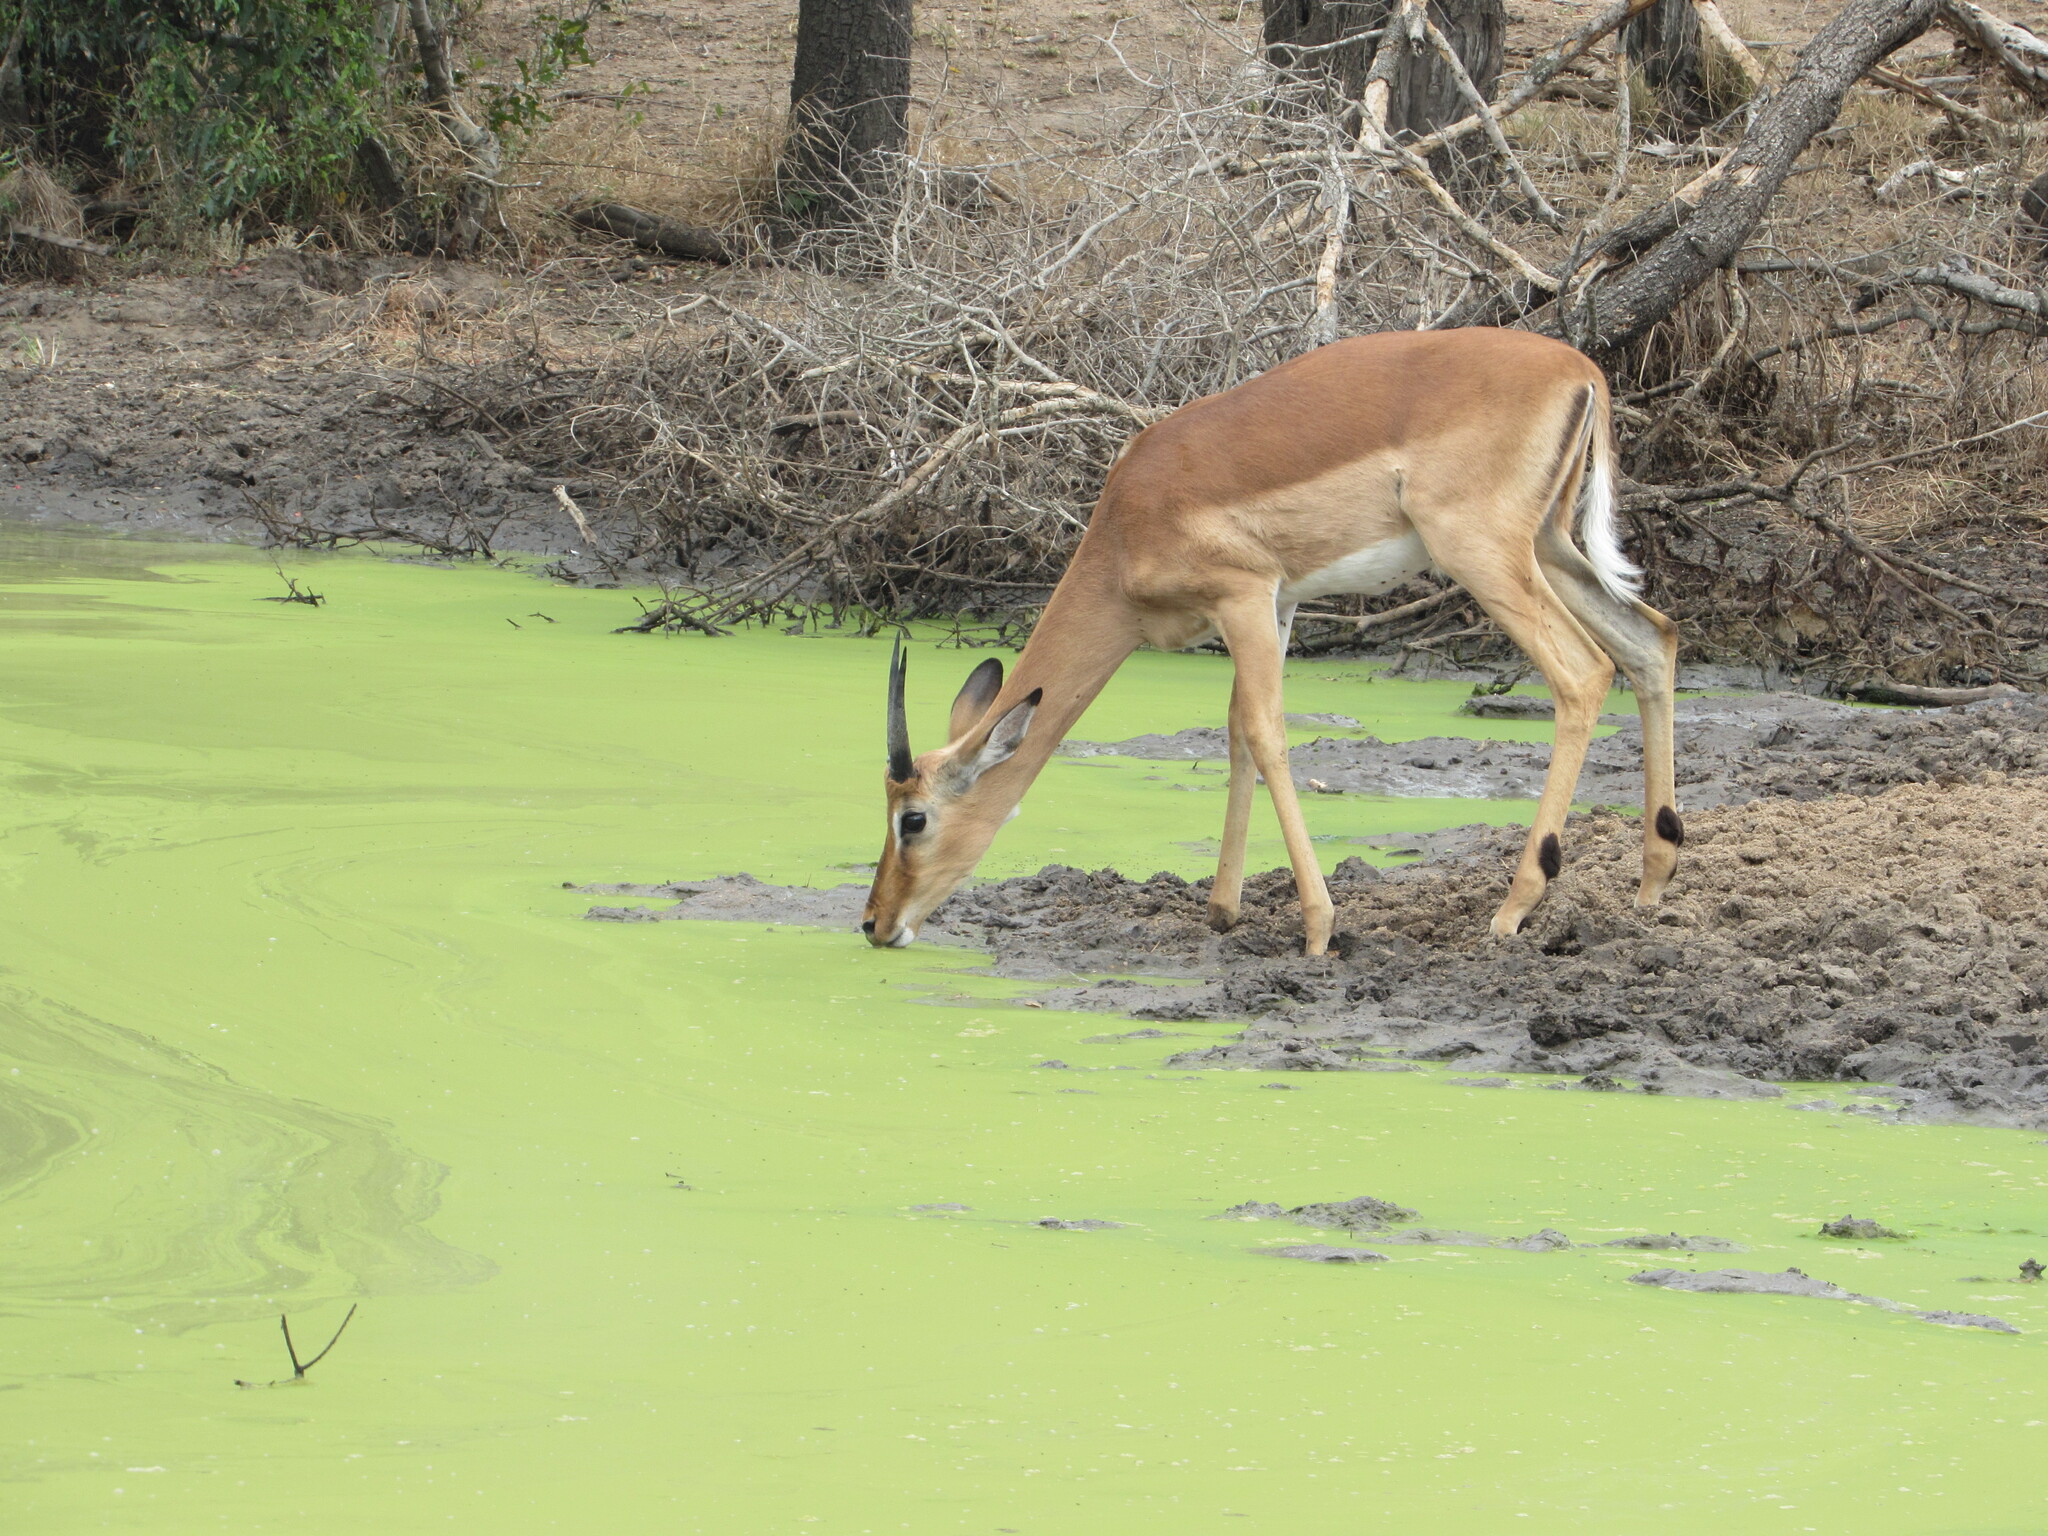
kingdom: Animalia
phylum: Chordata
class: Mammalia
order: Artiodactyla
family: Bovidae
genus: Aepyceros
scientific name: Aepyceros melampus
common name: Impala
